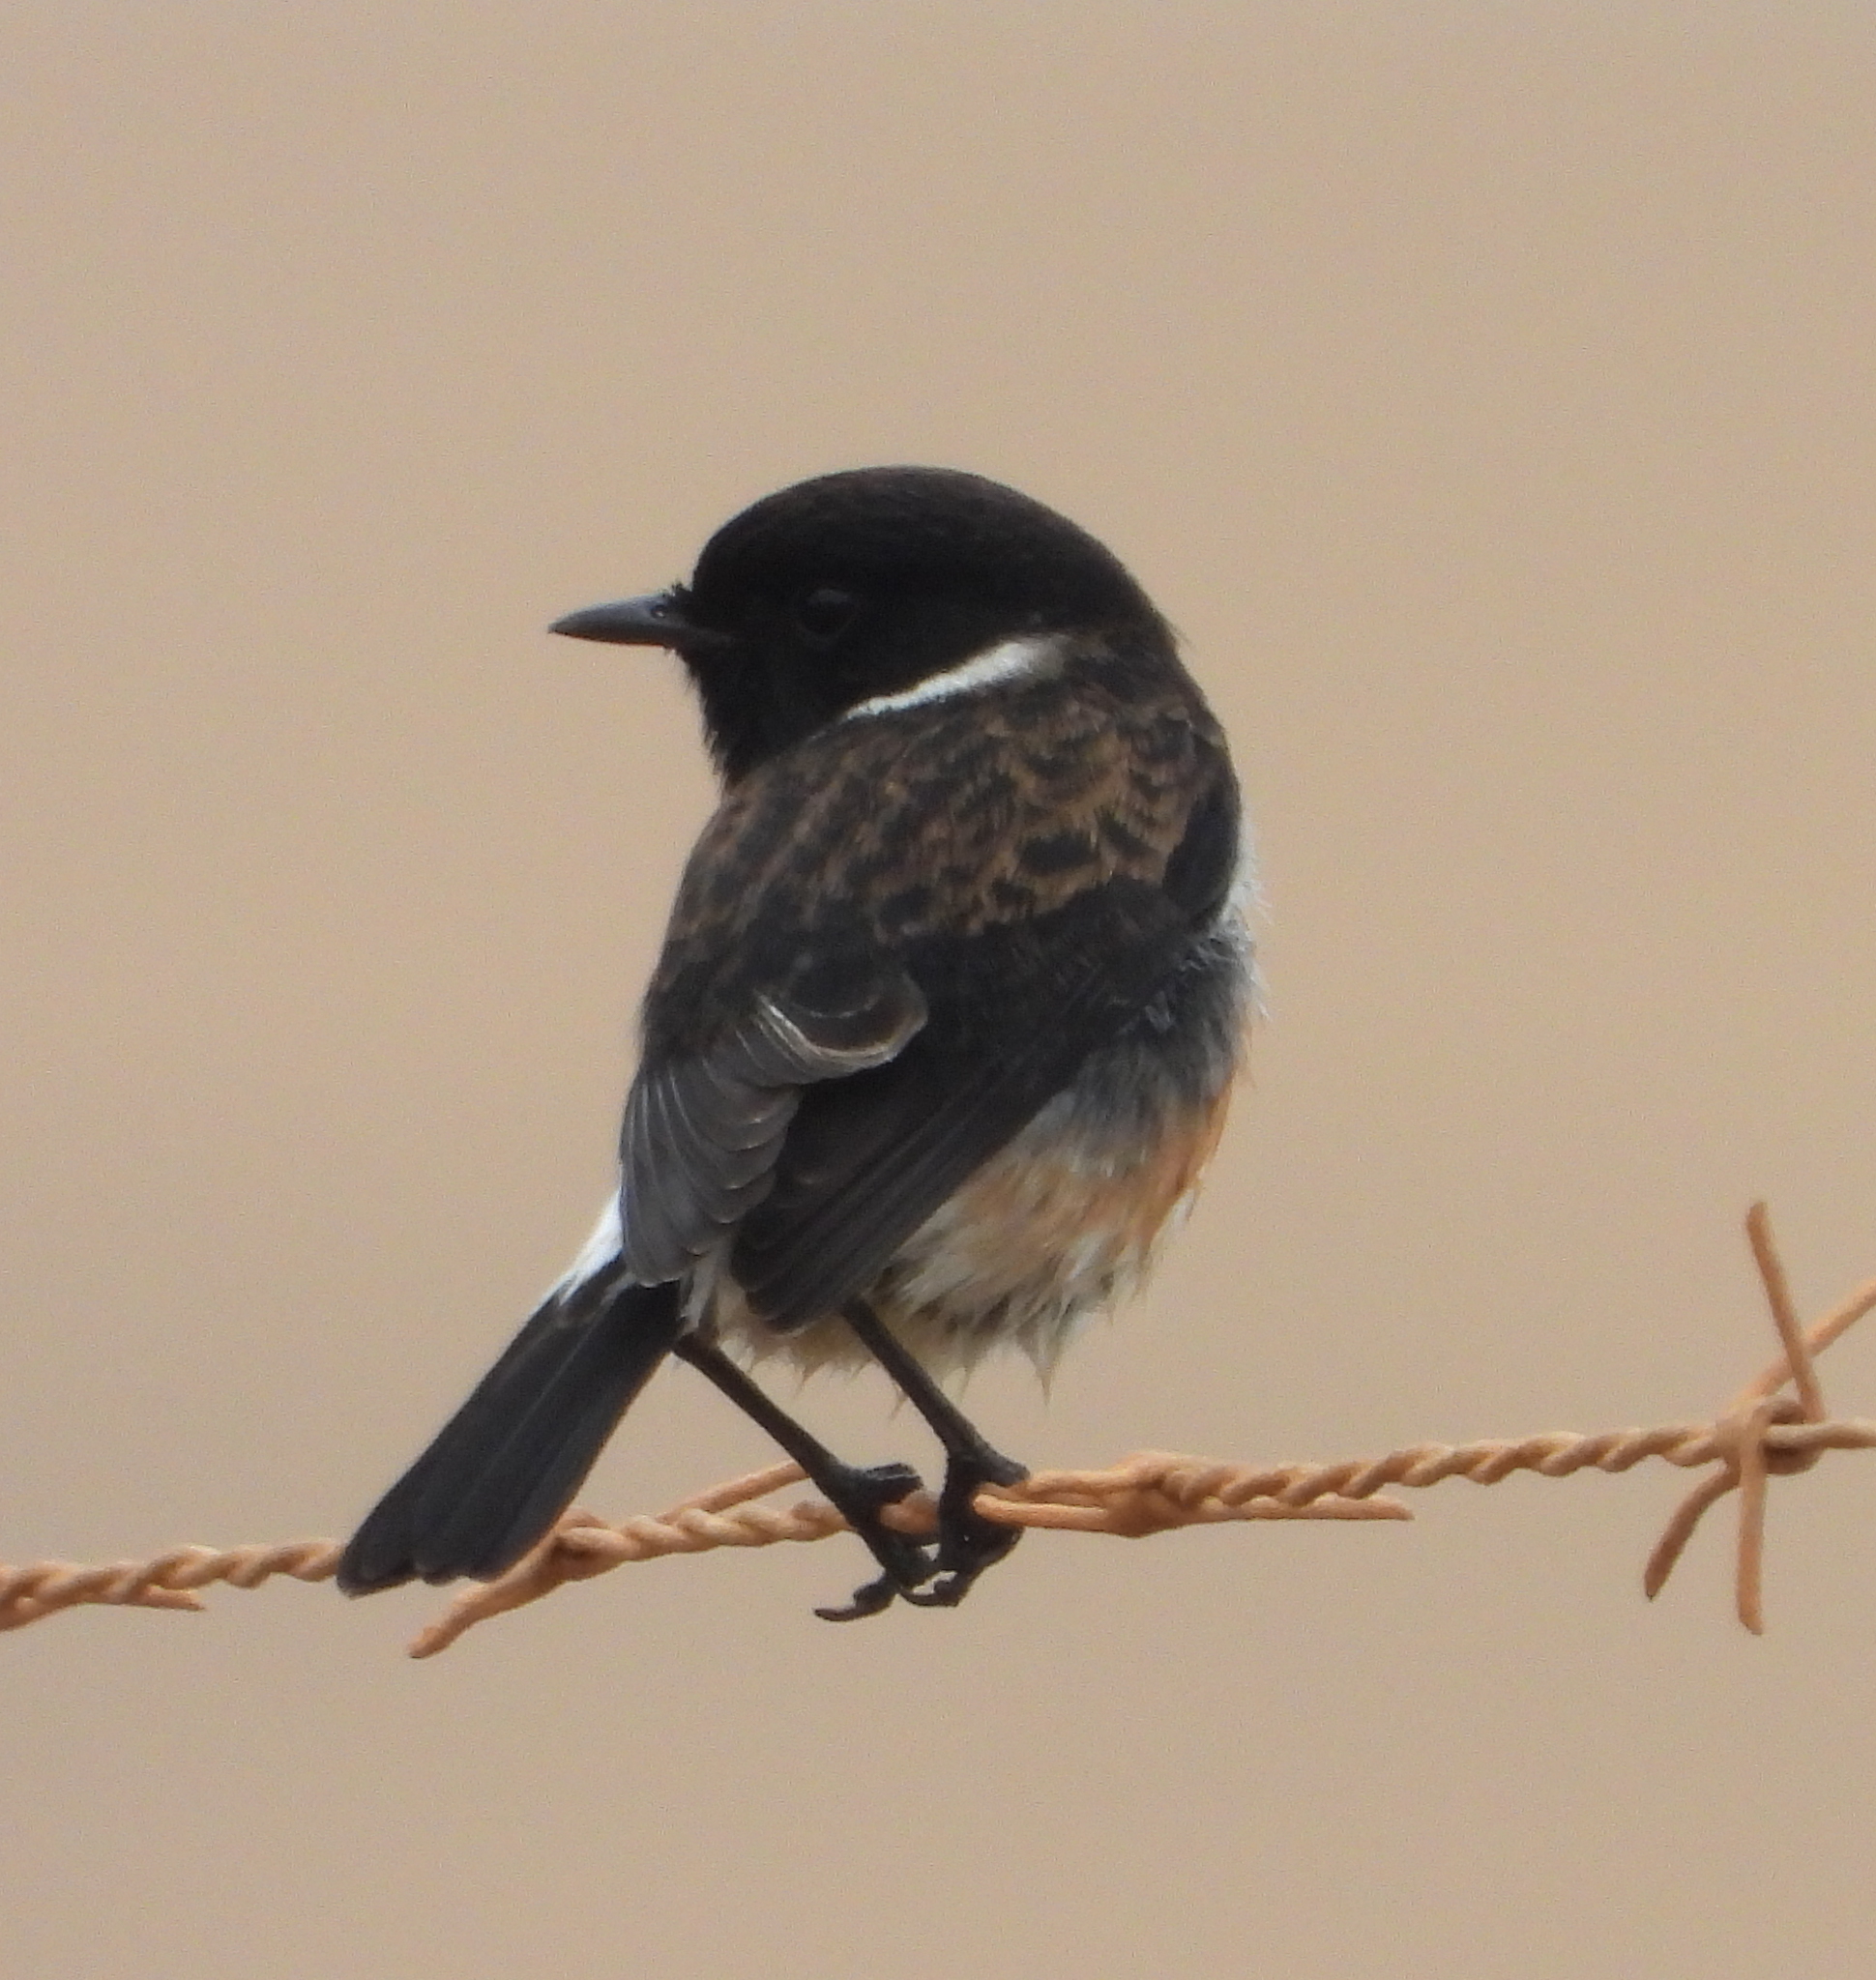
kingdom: Animalia
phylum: Chordata
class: Aves
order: Passeriformes
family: Muscicapidae
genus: Saxicola
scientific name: Saxicola torquatus
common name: African stonechat
